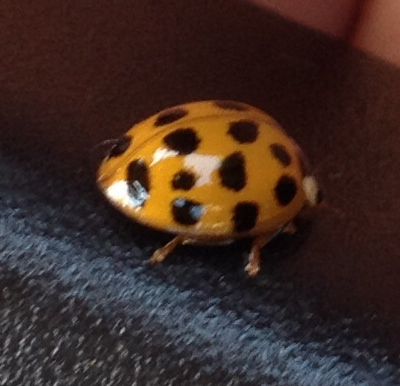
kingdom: Animalia
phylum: Arthropoda
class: Insecta
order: Coleoptera
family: Coccinellidae
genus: Harmonia
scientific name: Harmonia axyridis
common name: Harlequin ladybird
